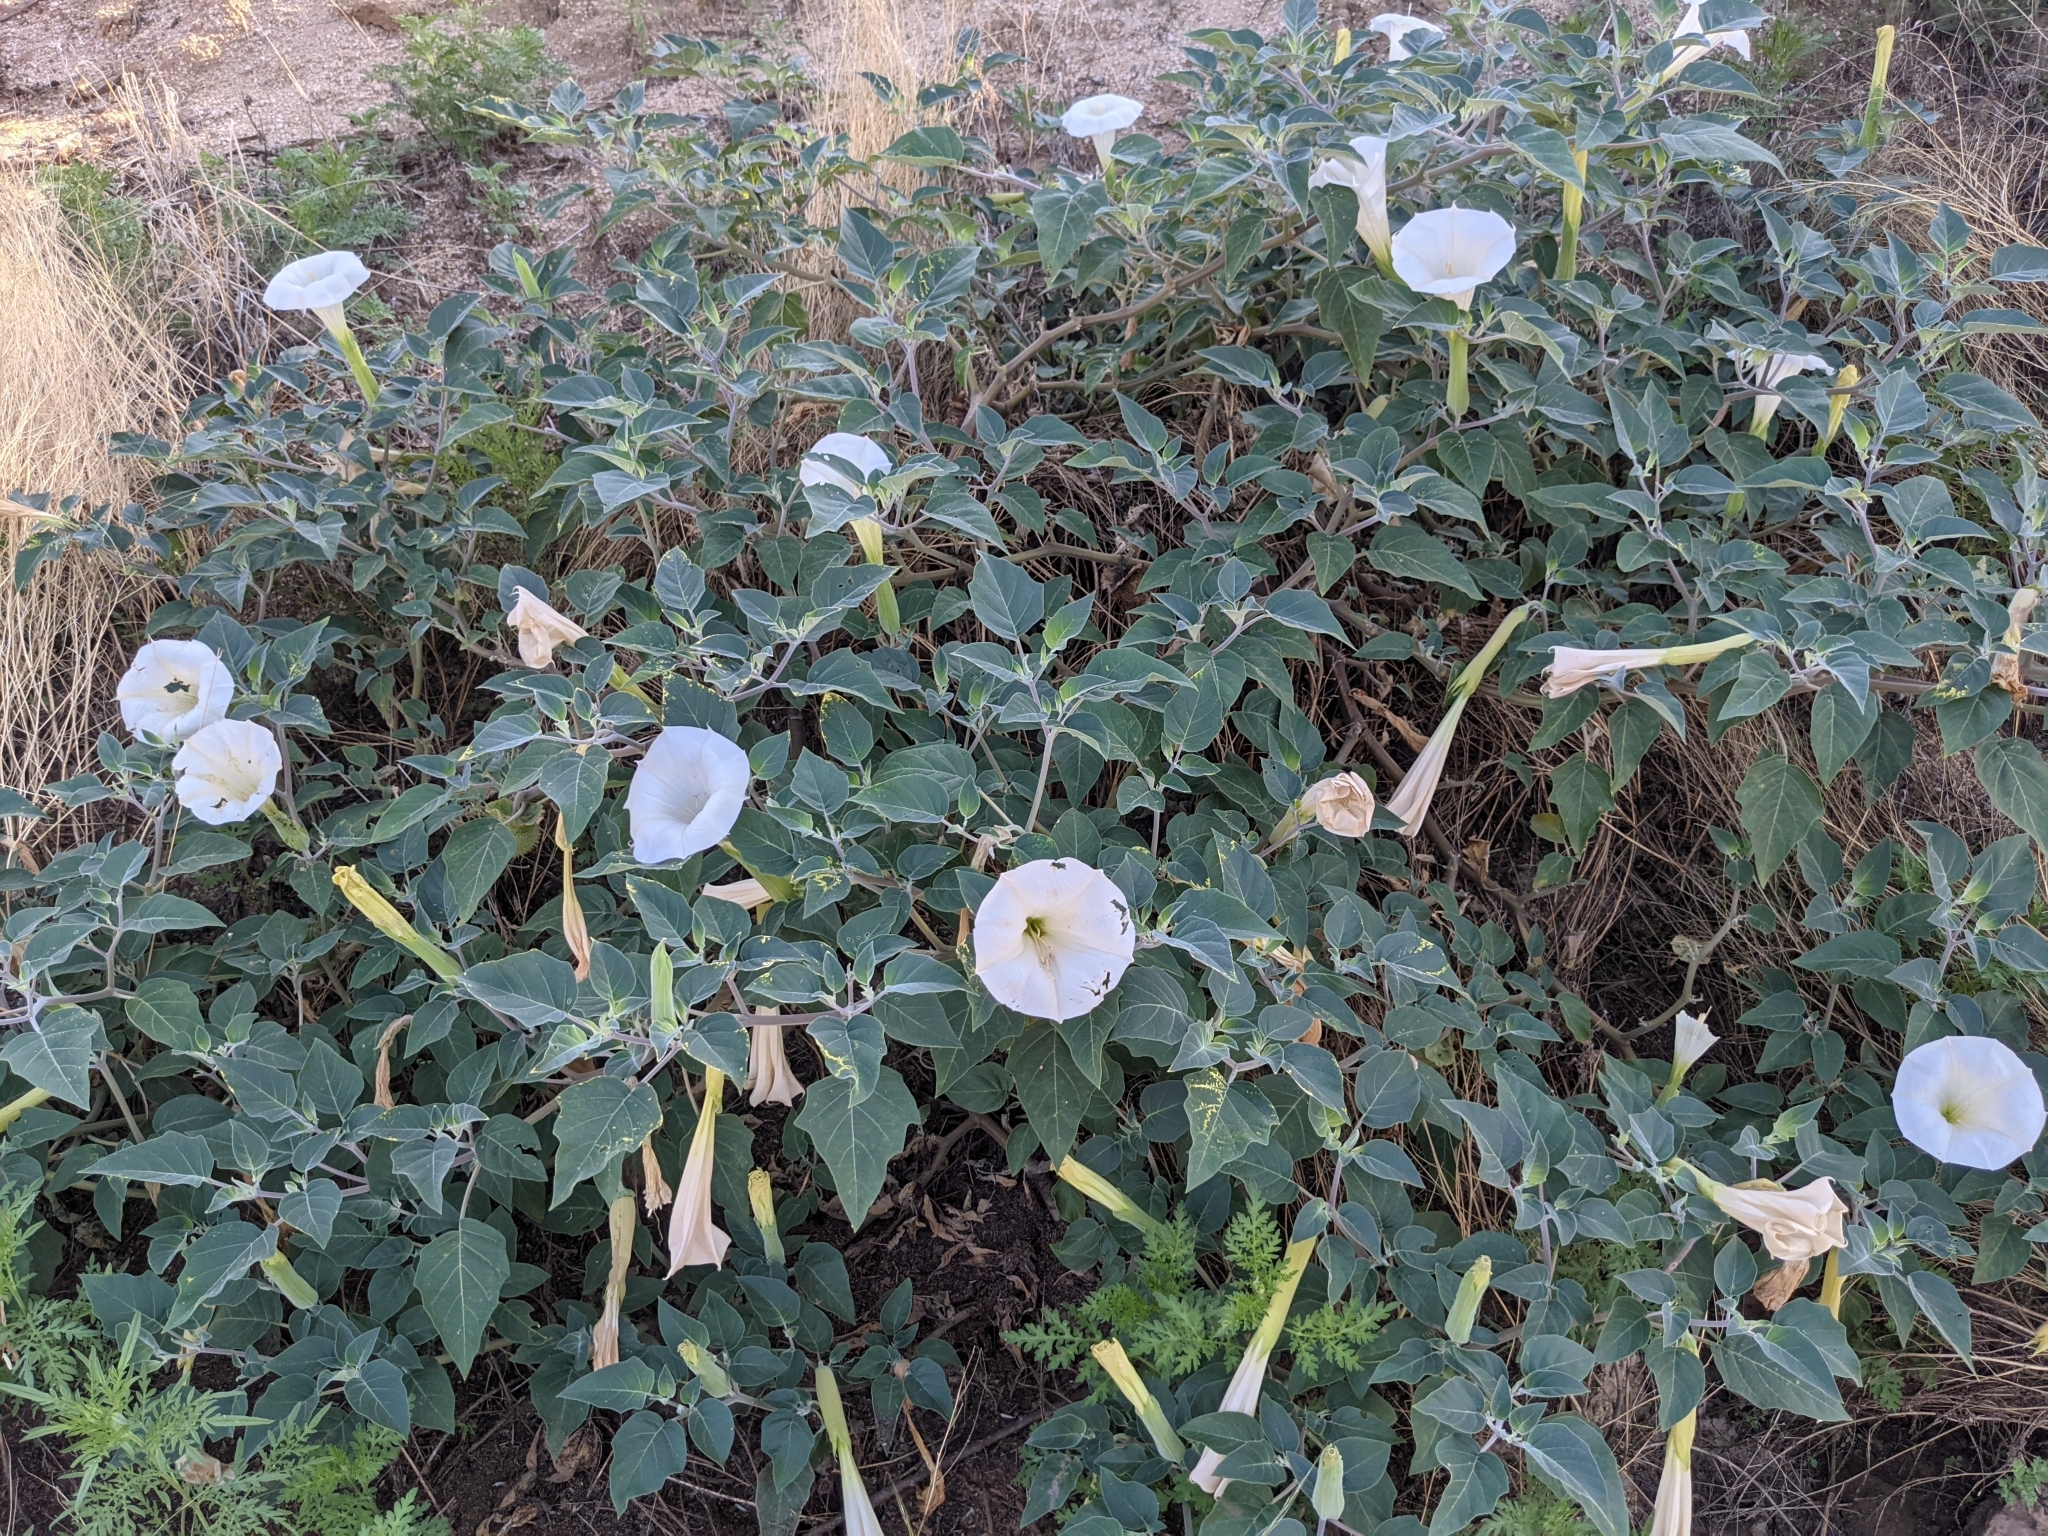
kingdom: Plantae
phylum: Tracheophyta
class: Magnoliopsida
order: Solanales
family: Solanaceae
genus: Datura
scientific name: Datura wrightii
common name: Sacred thorn-apple
